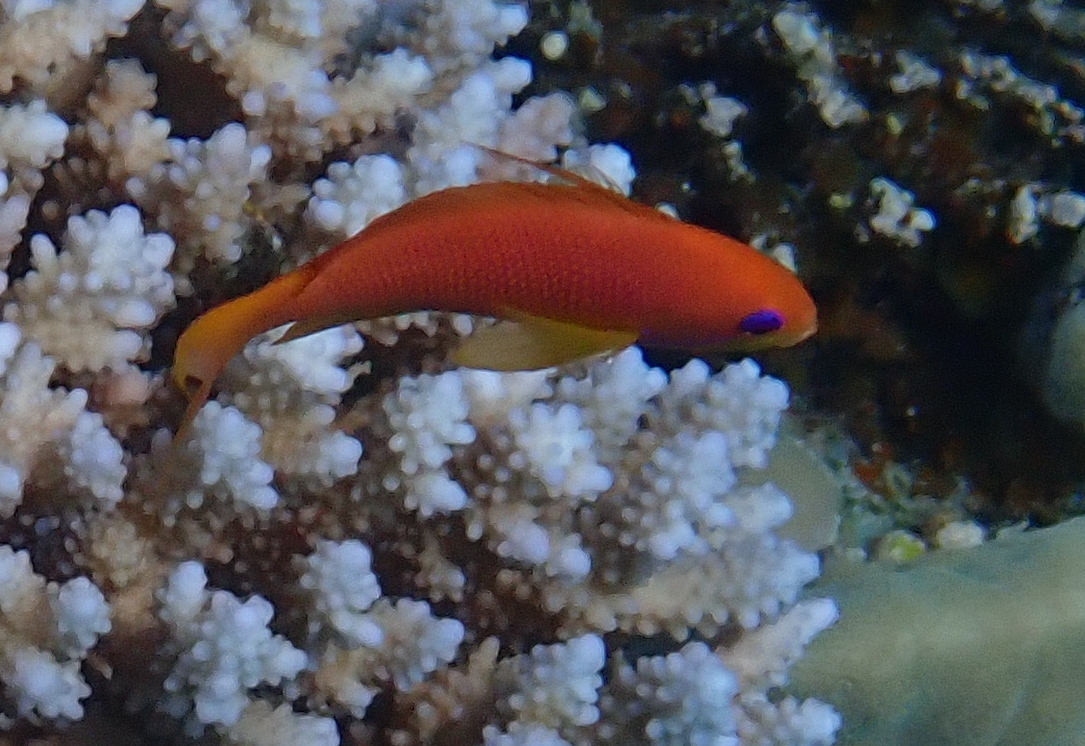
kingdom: Animalia
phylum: Chordata
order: Perciformes
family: Serranidae
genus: Pseudanthias
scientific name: Pseudanthias squamipinnis
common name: Scalefin anthias
